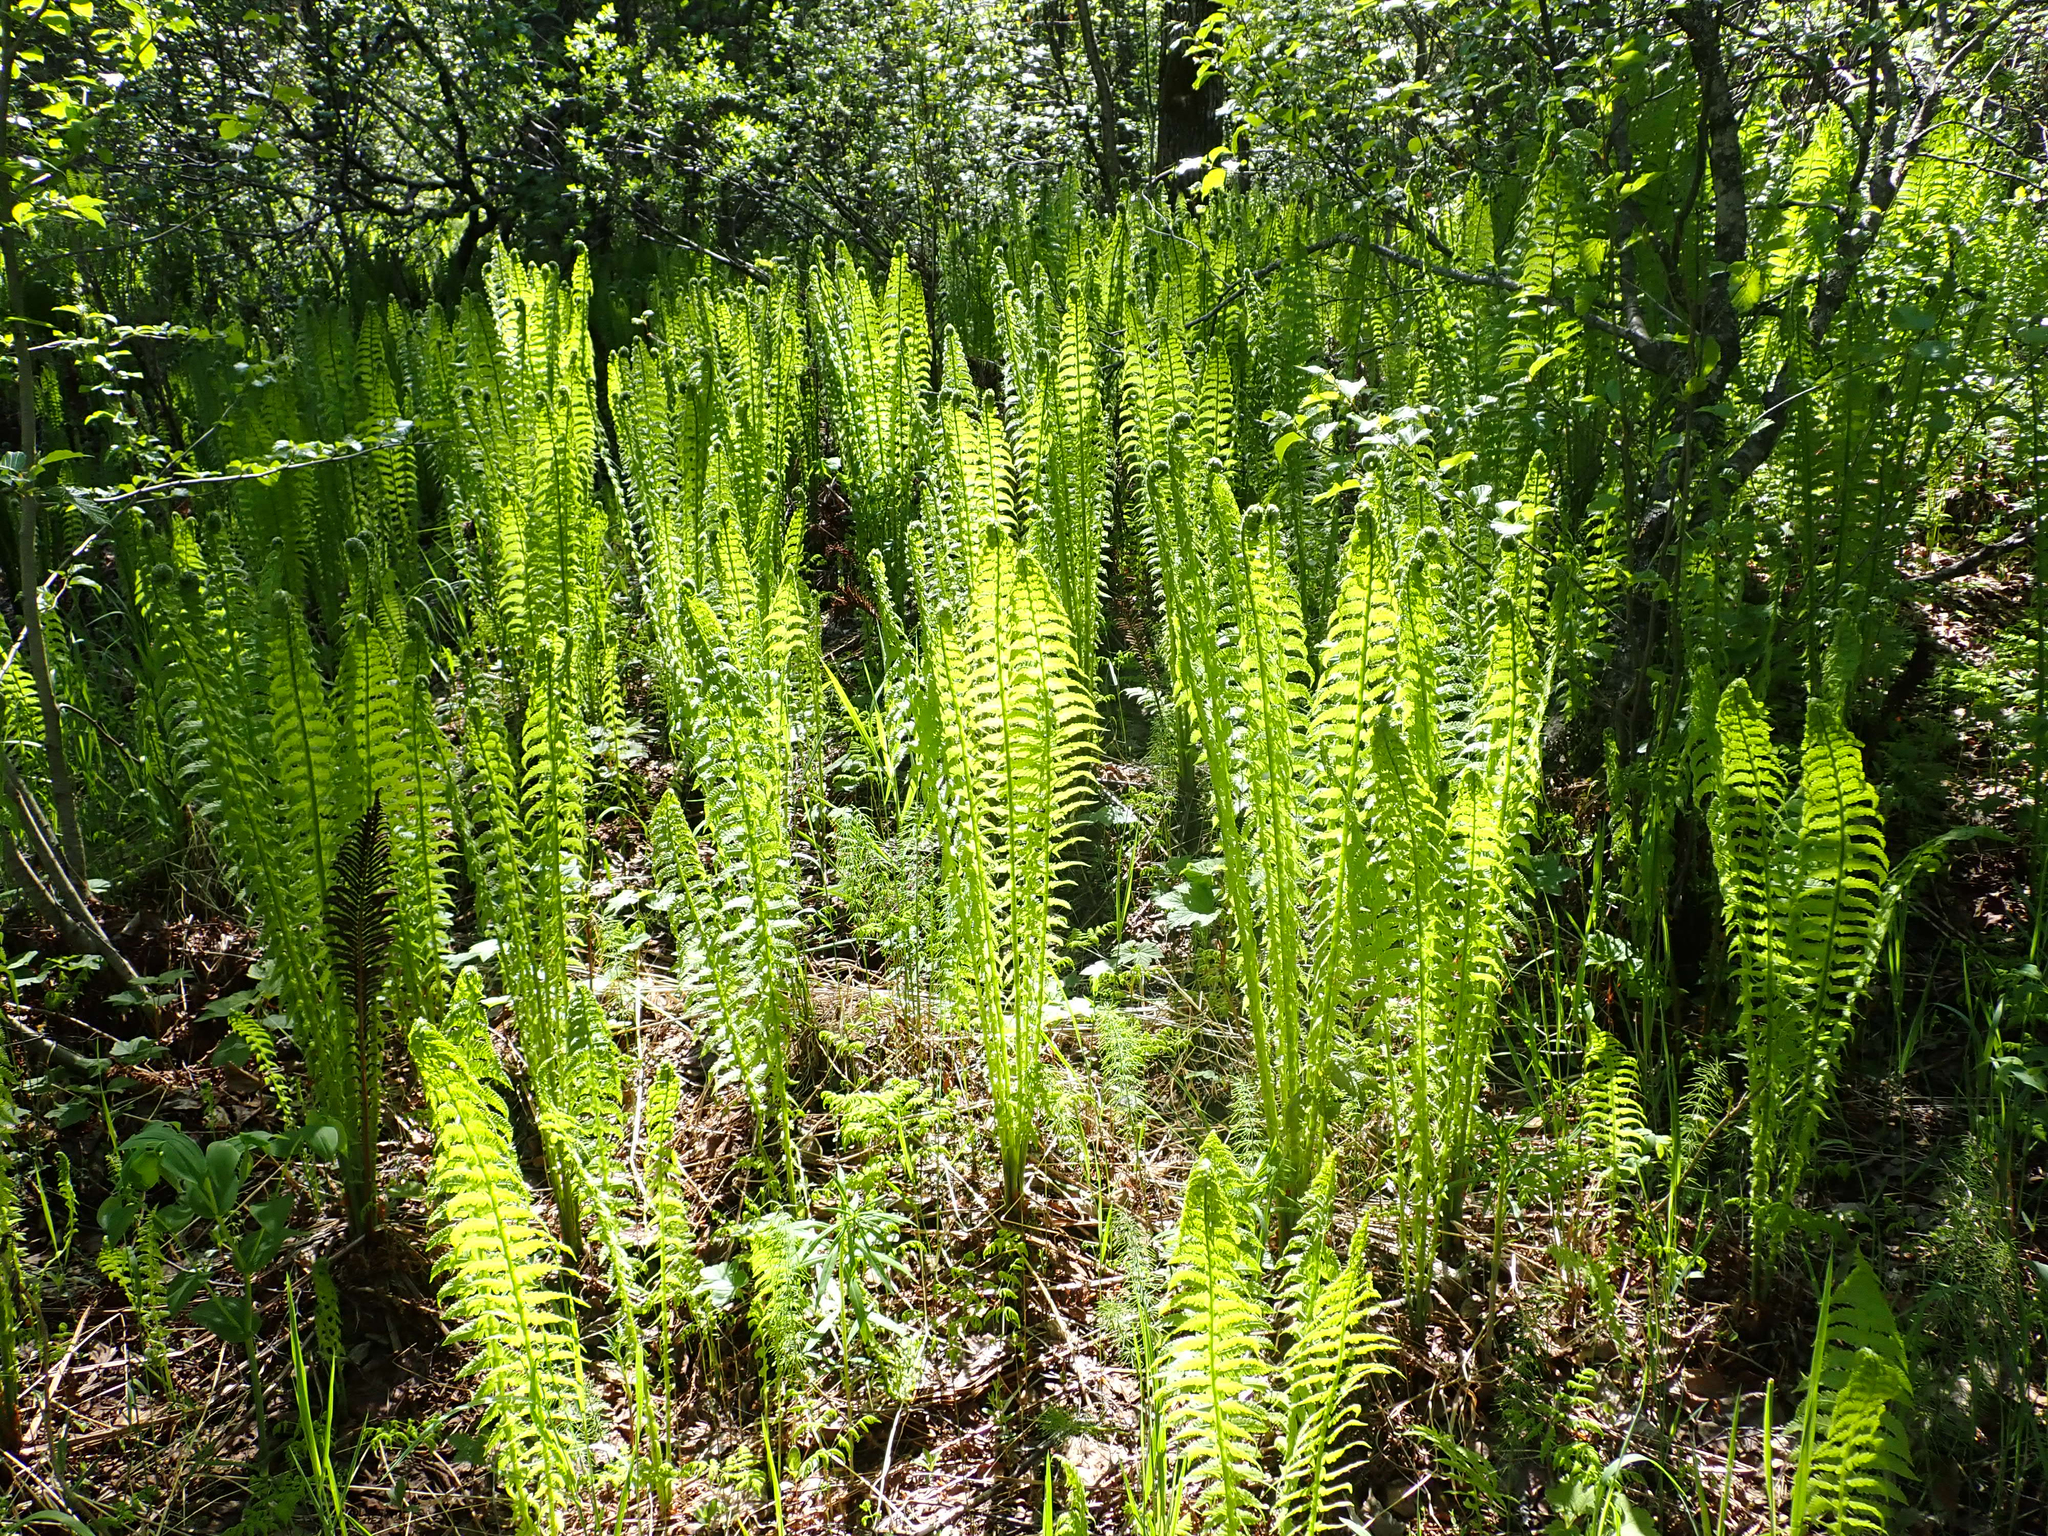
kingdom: Plantae
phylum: Tracheophyta
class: Polypodiopsida
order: Polypodiales
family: Onocleaceae
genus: Matteuccia
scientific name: Matteuccia struthiopteris
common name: Ostrich fern
